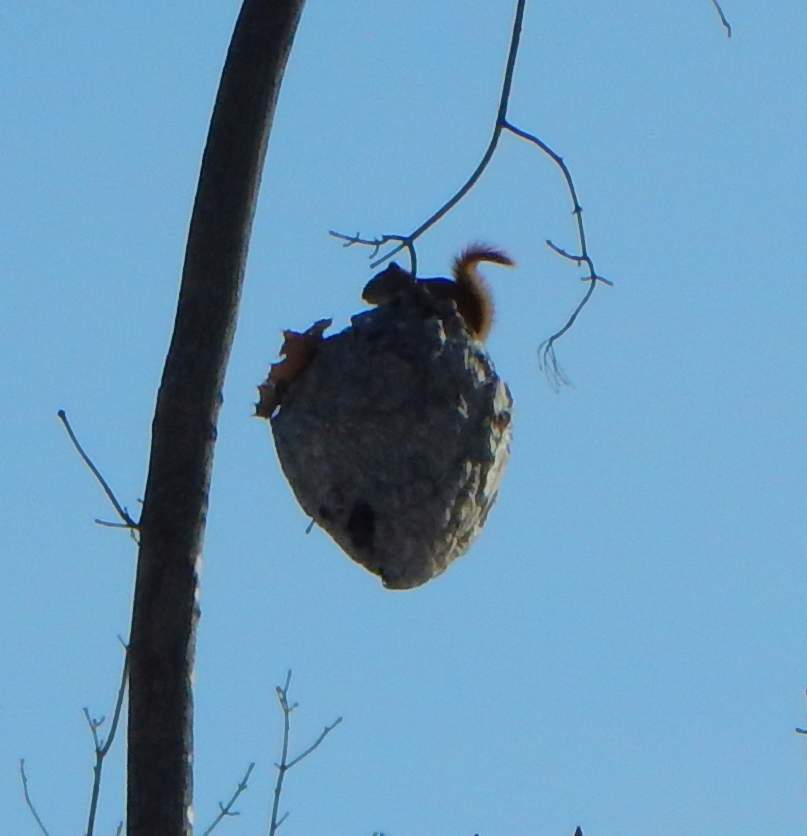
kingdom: Animalia
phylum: Chordata
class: Mammalia
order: Rodentia
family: Sciuridae
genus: Tamiasciurus
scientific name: Tamiasciurus hudsonicus
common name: Red squirrel
